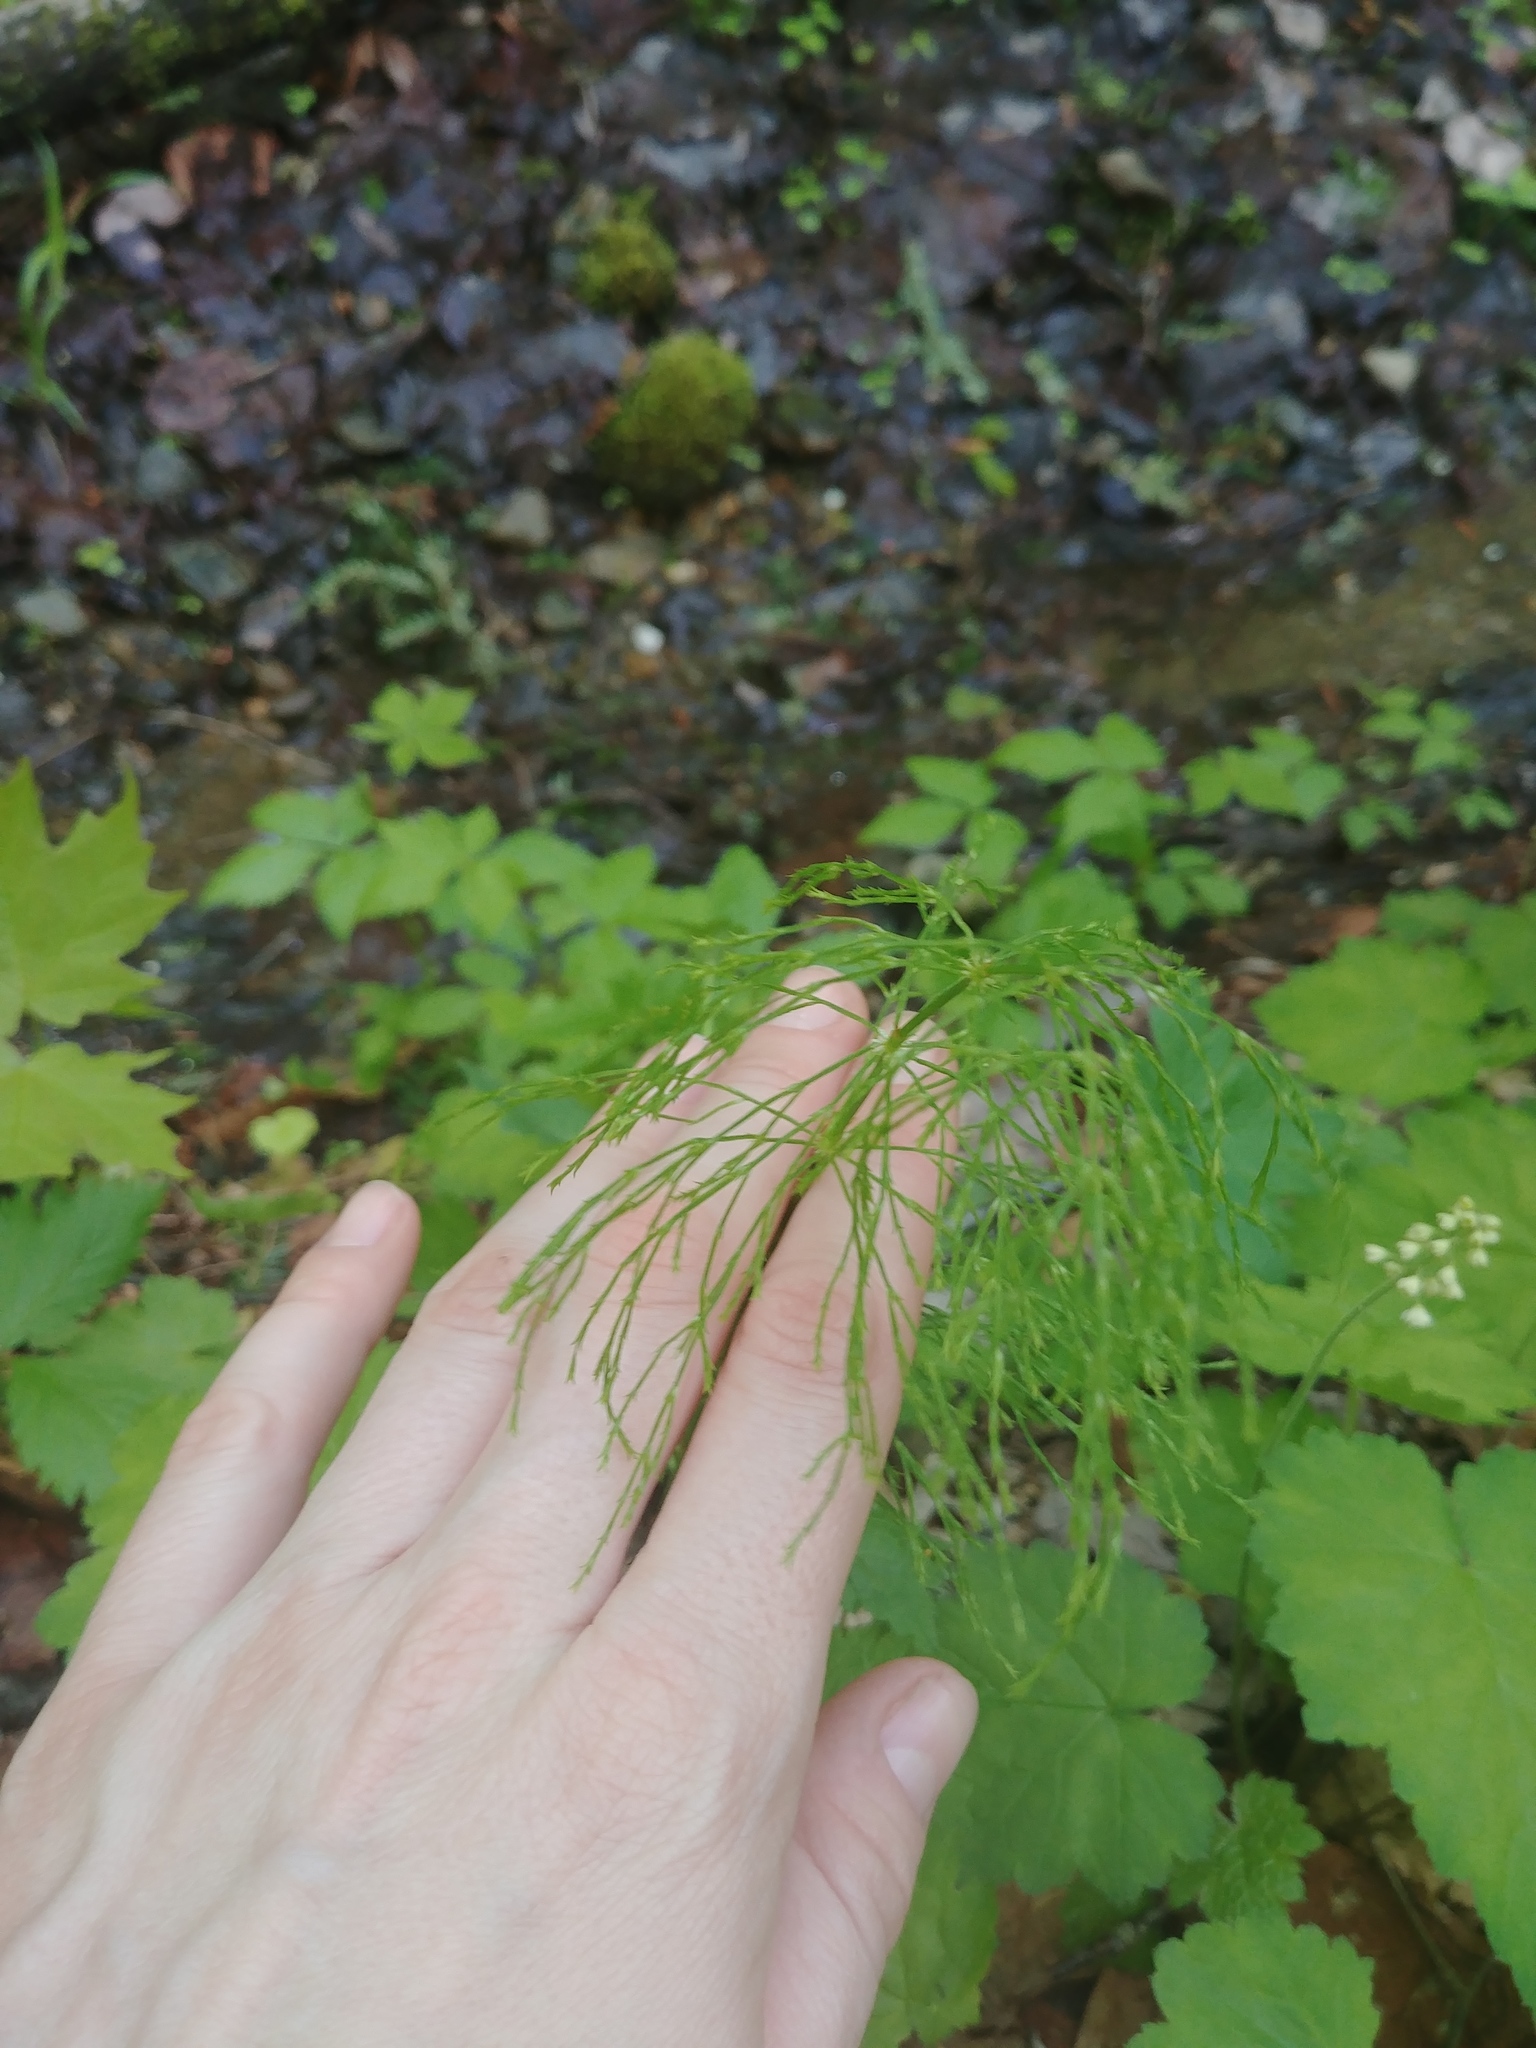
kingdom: Plantae
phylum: Tracheophyta
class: Polypodiopsida
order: Equisetales
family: Equisetaceae
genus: Equisetum
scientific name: Equisetum sylvaticum
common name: Wood horsetail
